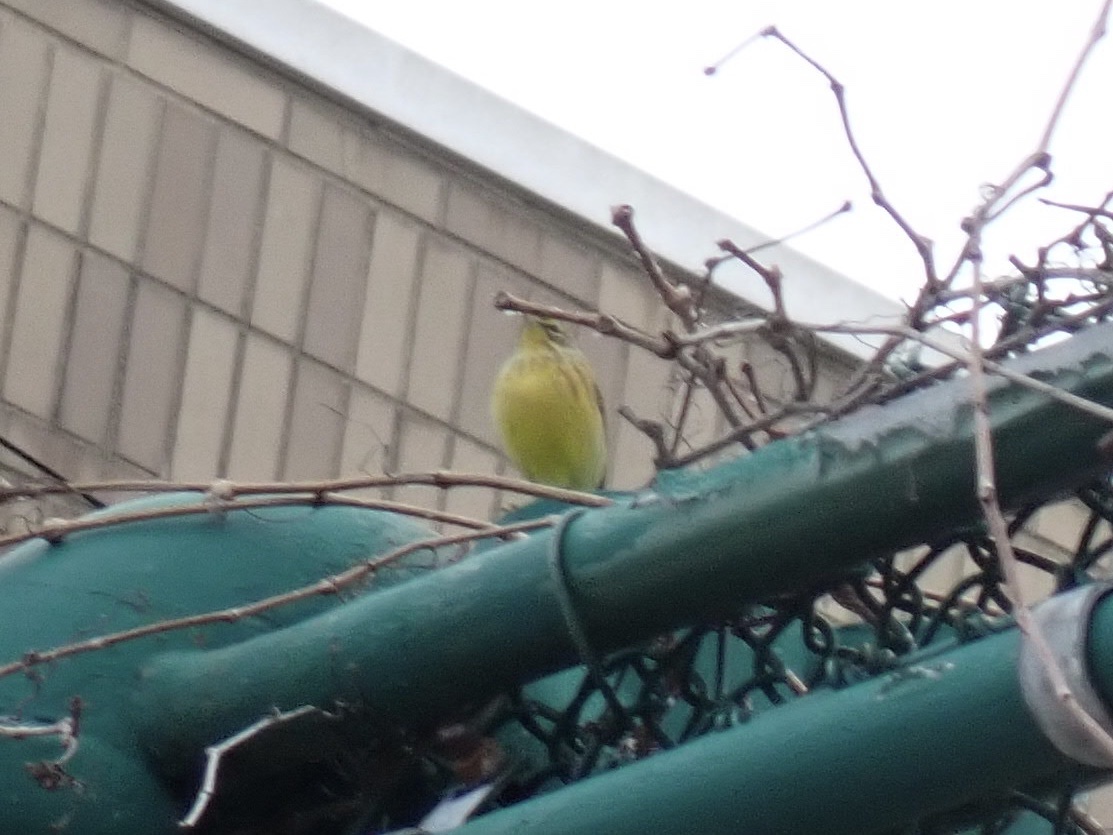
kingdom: Animalia
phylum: Chordata
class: Aves
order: Passeriformes
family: Parulidae
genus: Setophaga
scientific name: Setophaga palmarum
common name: Palm warbler
